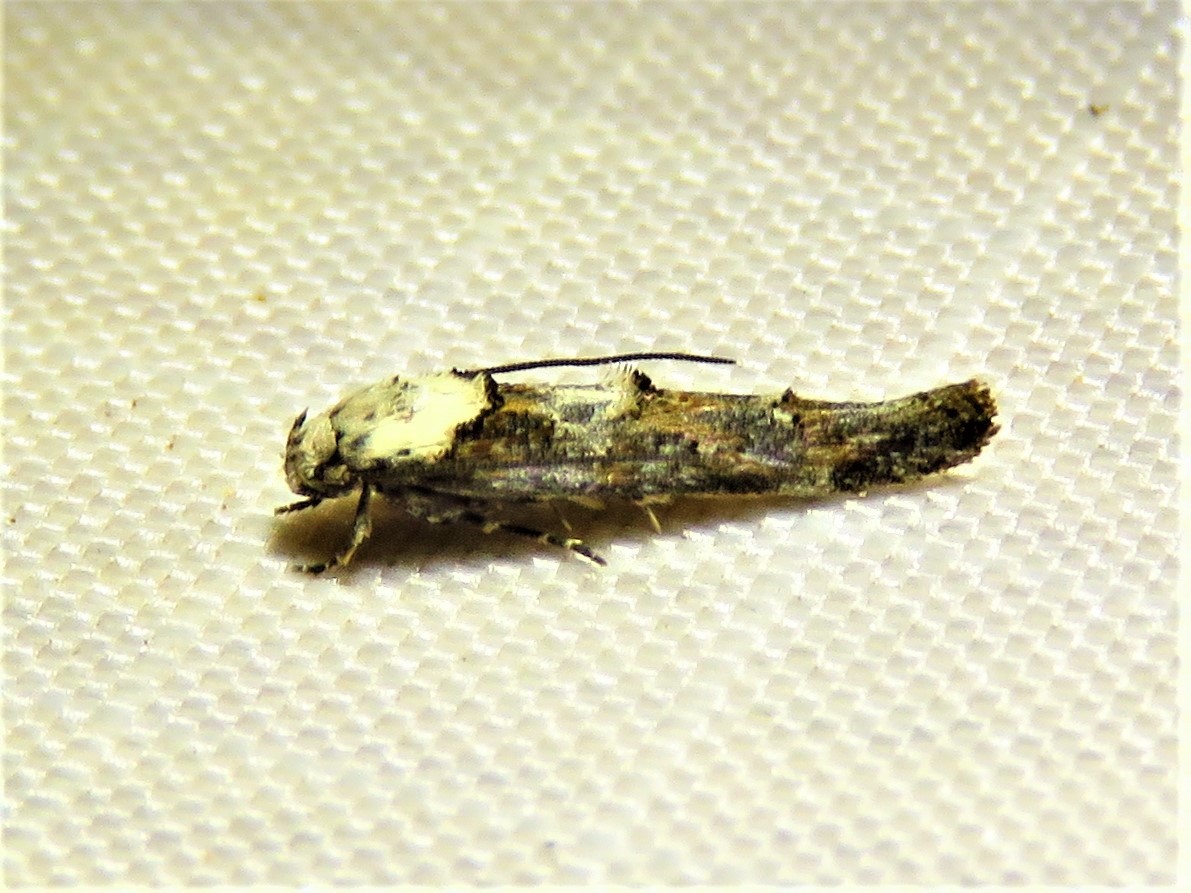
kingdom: Animalia
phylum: Arthropoda
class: Insecta
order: Lepidoptera
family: Momphidae
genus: Mompha
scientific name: Mompha rufocristatella
